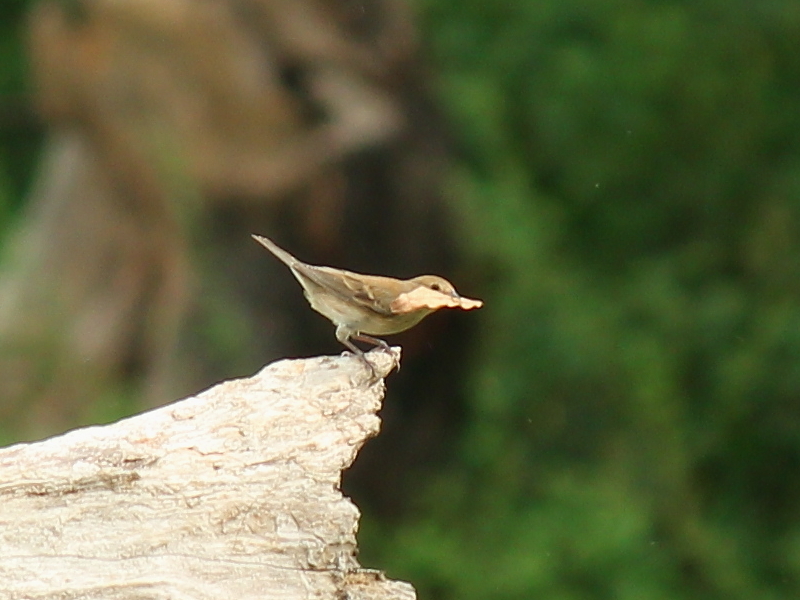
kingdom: Animalia
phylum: Chordata
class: Aves
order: Passeriformes
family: Cardinalidae
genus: Passerina
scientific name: Passerina caerulea
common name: Blue grosbeak
